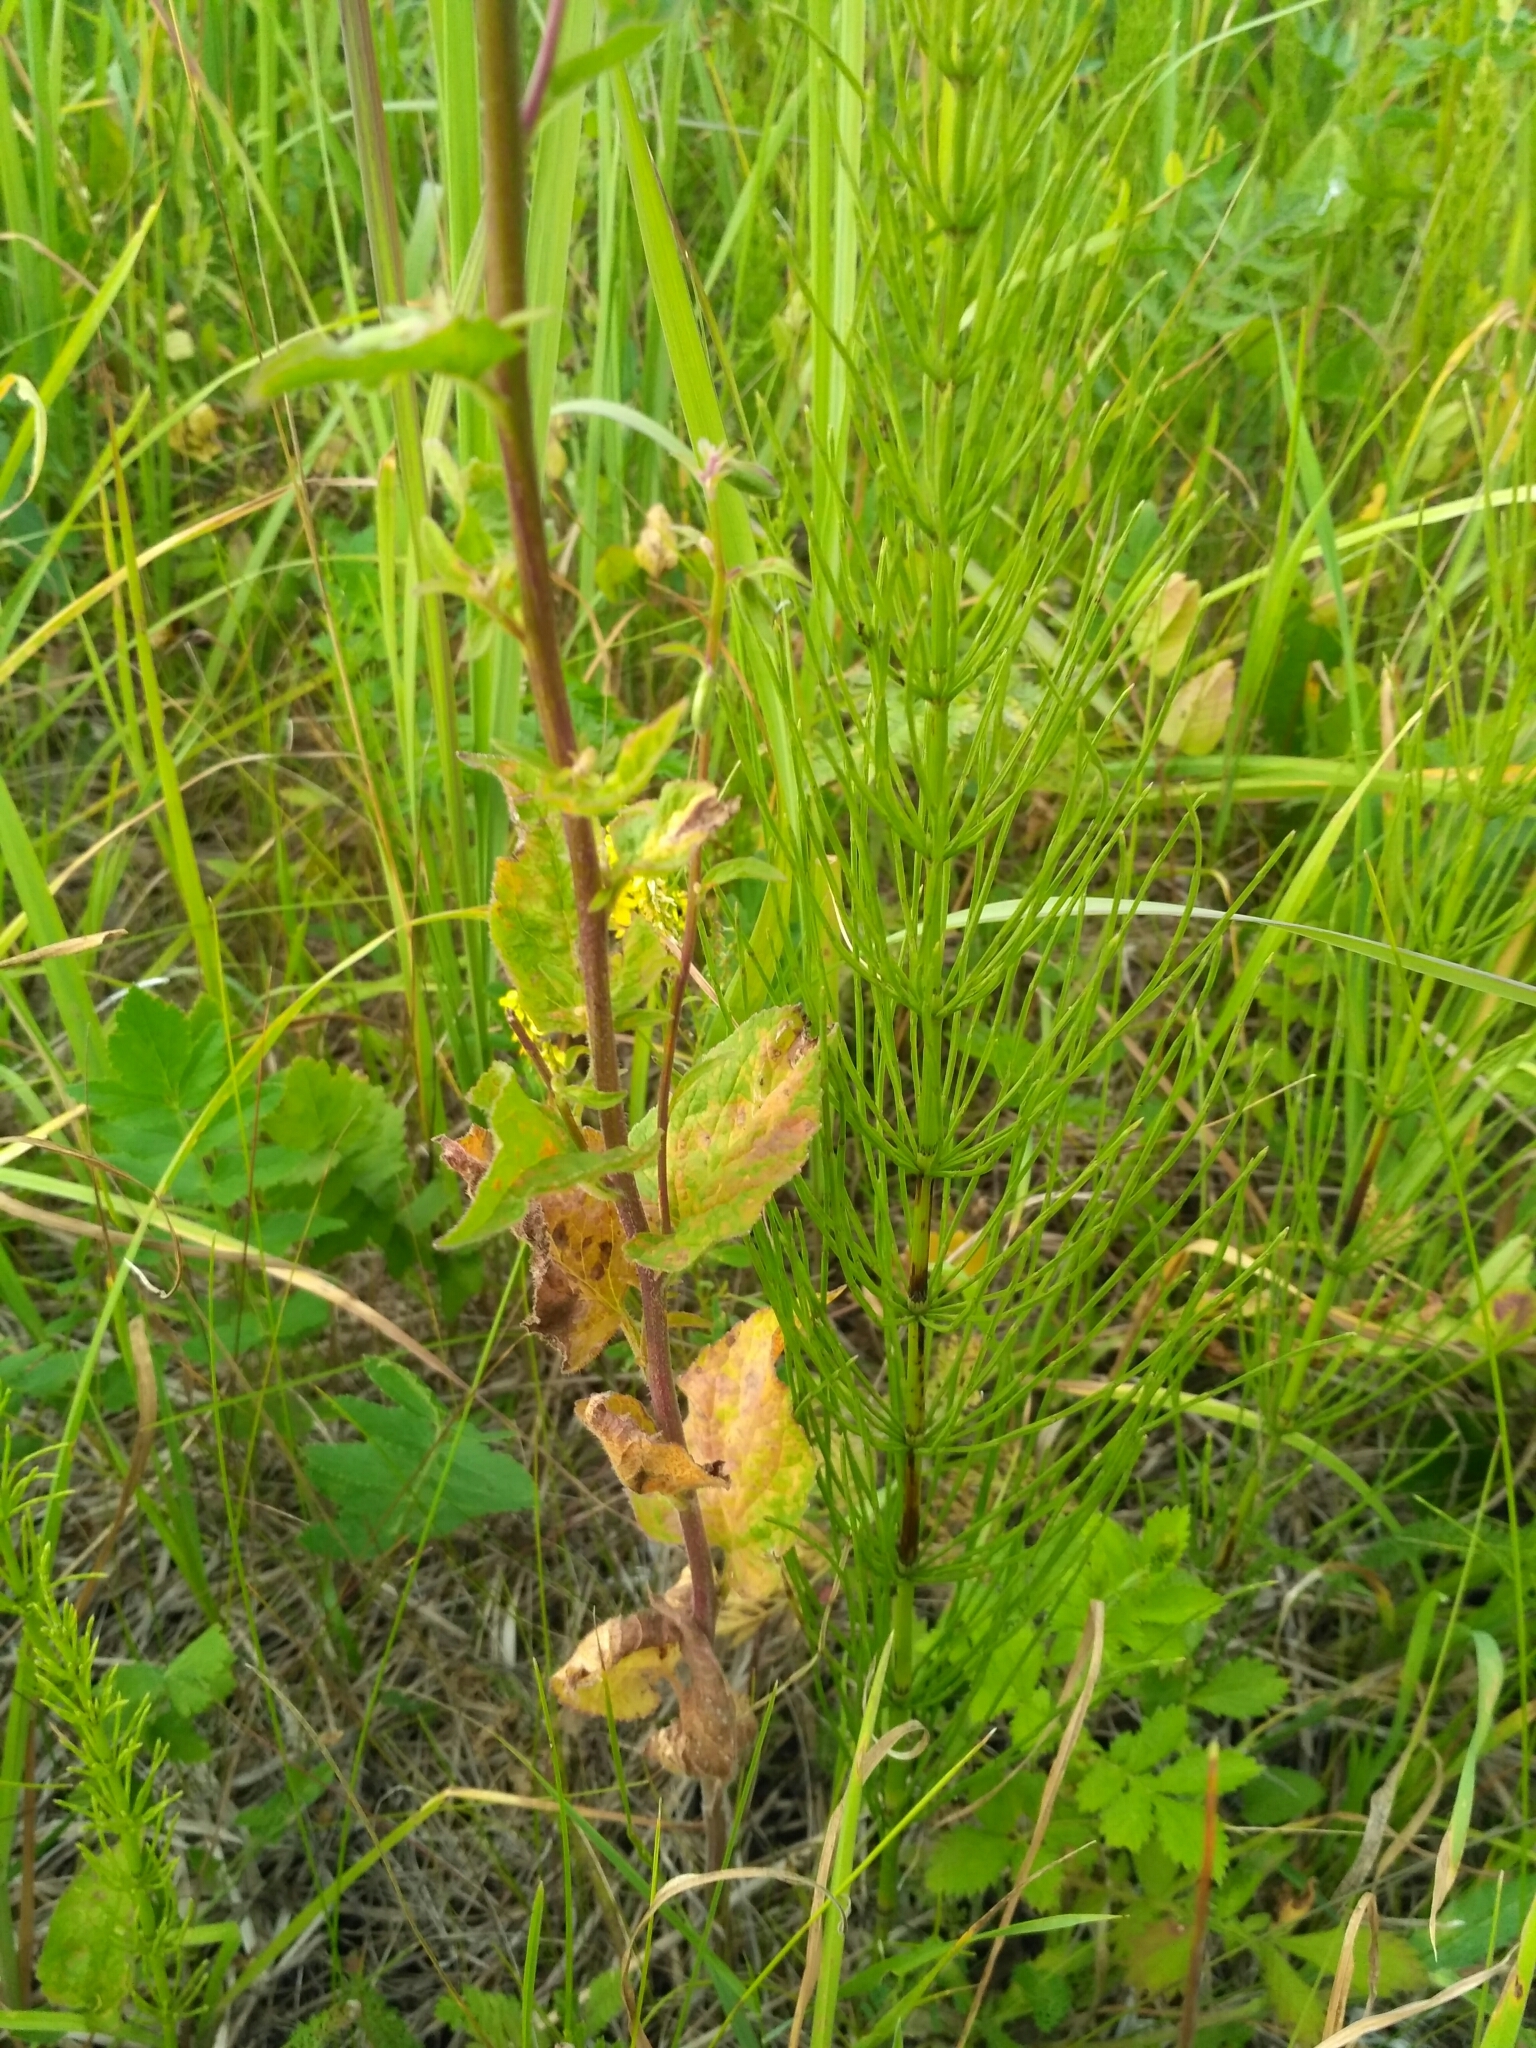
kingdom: Plantae
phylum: Tracheophyta
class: Magnoliopsida
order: Asterales
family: Campanulaceae
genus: Campanula
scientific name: Campanula rapunculoides
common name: Creeping bellflower
